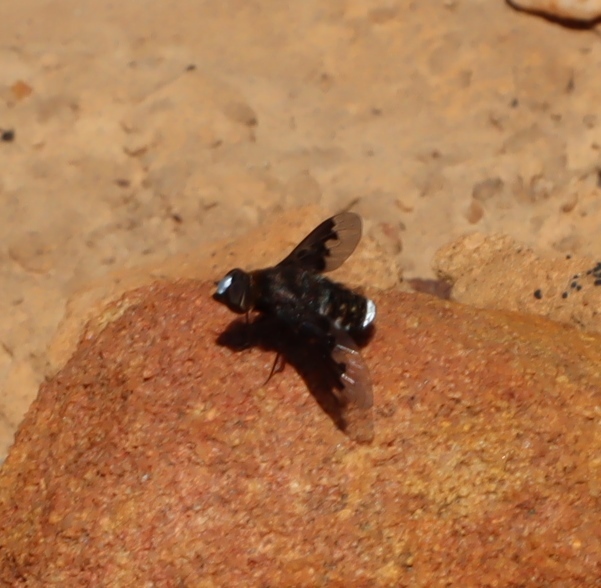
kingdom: Animalia
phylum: Arthropoda
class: Insecta
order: Diptera
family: Bombyliidae
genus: Exoprosopa
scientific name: Exoprosopa argentifrons
